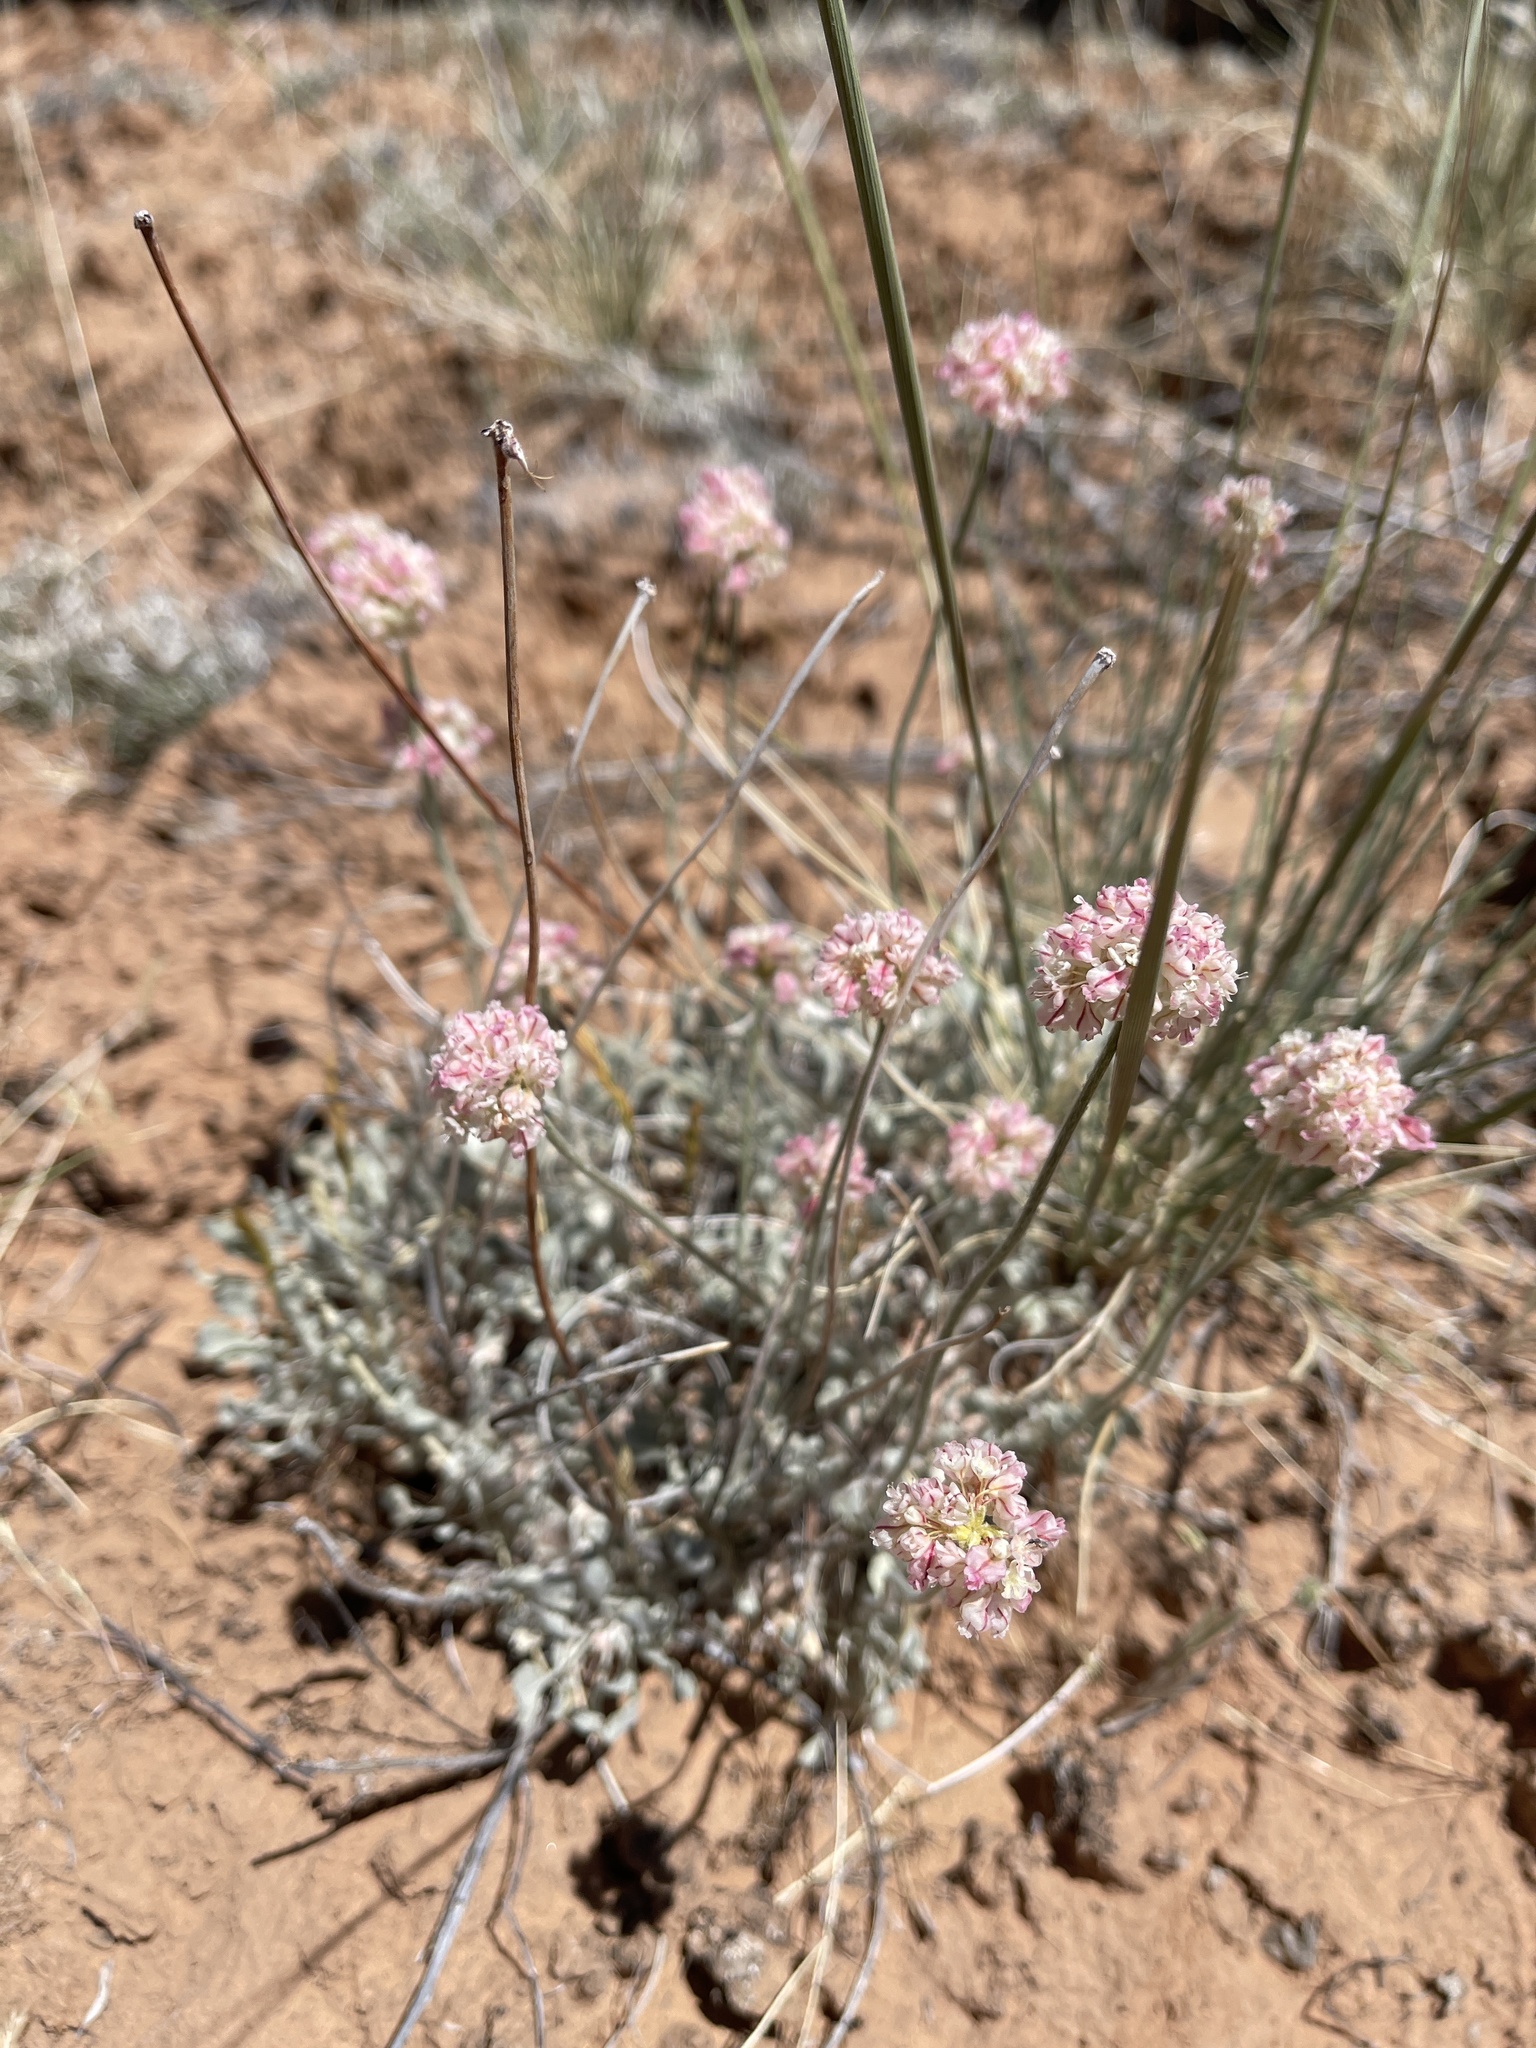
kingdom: Plantae
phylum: Tracheophyta
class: Magnoliopsida
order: Caryophyllales
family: Polygonaceae
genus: Eriogonum
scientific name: Eriogonum ovalifolium
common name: Cushion buckwheat
